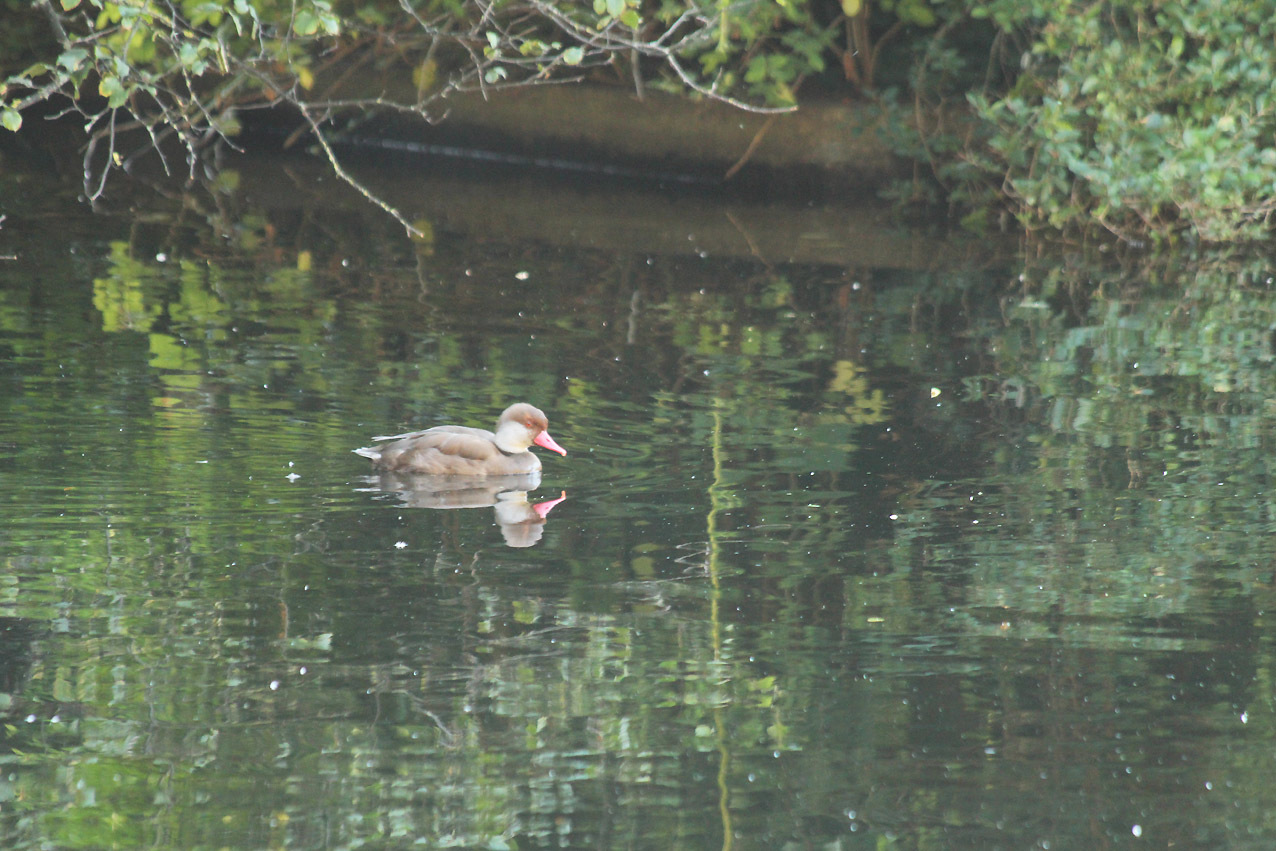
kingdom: Animalia
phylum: Chordata
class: Aves
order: Anseriformes
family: Anatidae
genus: Netta
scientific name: Netta rufina
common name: Red-crested pochard
